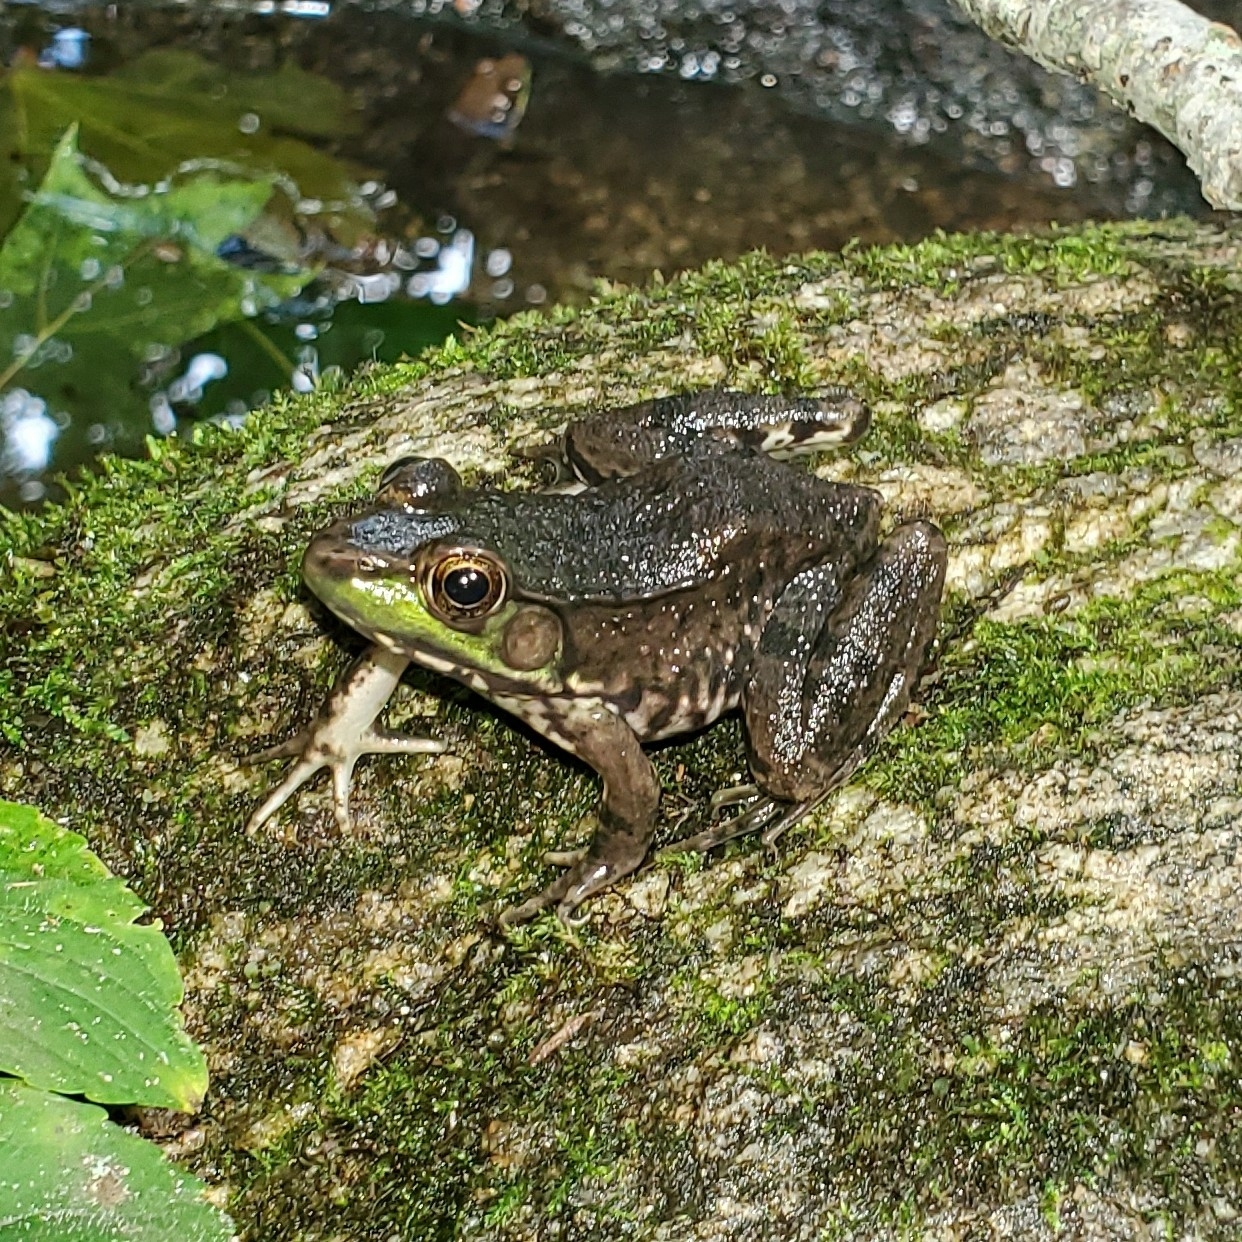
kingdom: Animalia
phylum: Chordata
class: Amphibia
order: Anura
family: Ranidae
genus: Lithobates
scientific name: Lithobates clamitans
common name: Green frog
